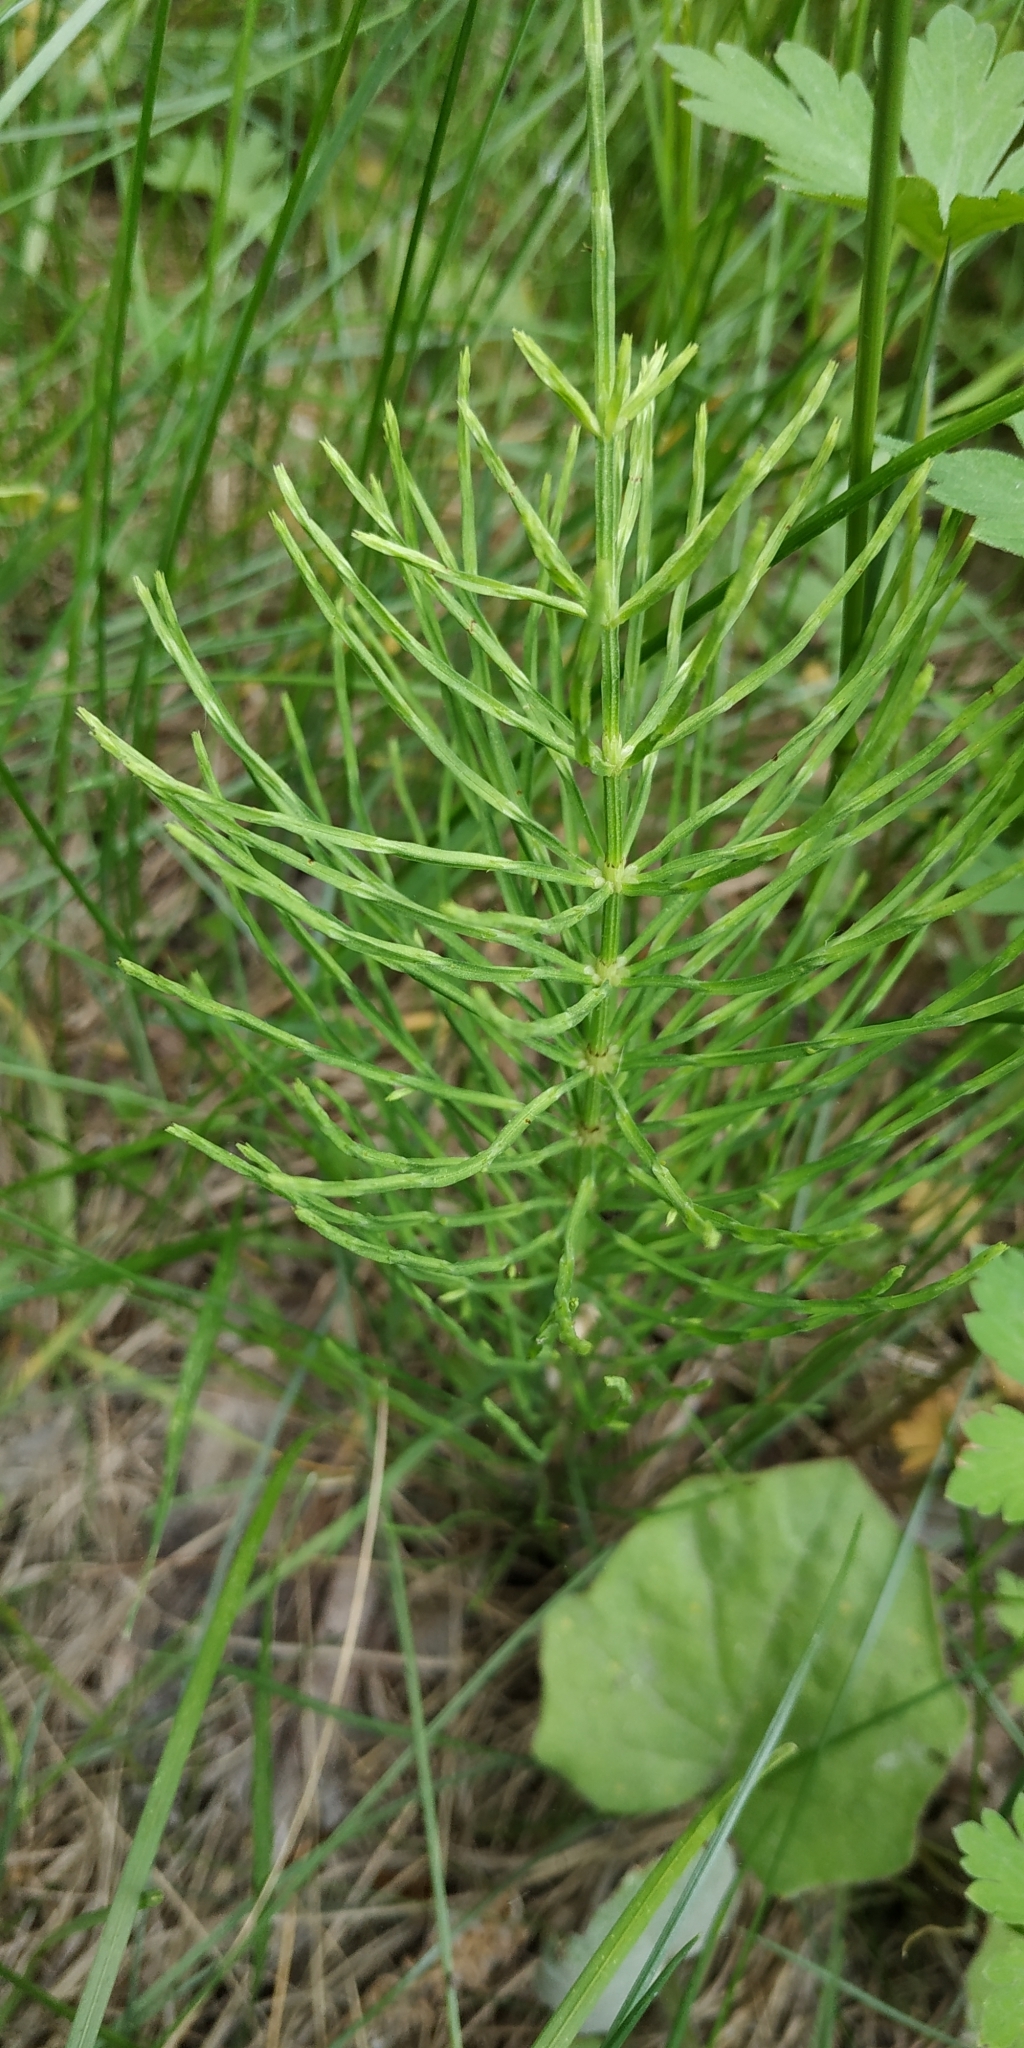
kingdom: Plantae
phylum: Tracheophyta
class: Polypodiopsida
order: Equisetales
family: Equisetaceae
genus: Equisetum
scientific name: Equisetum arvense
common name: Field horsetail
